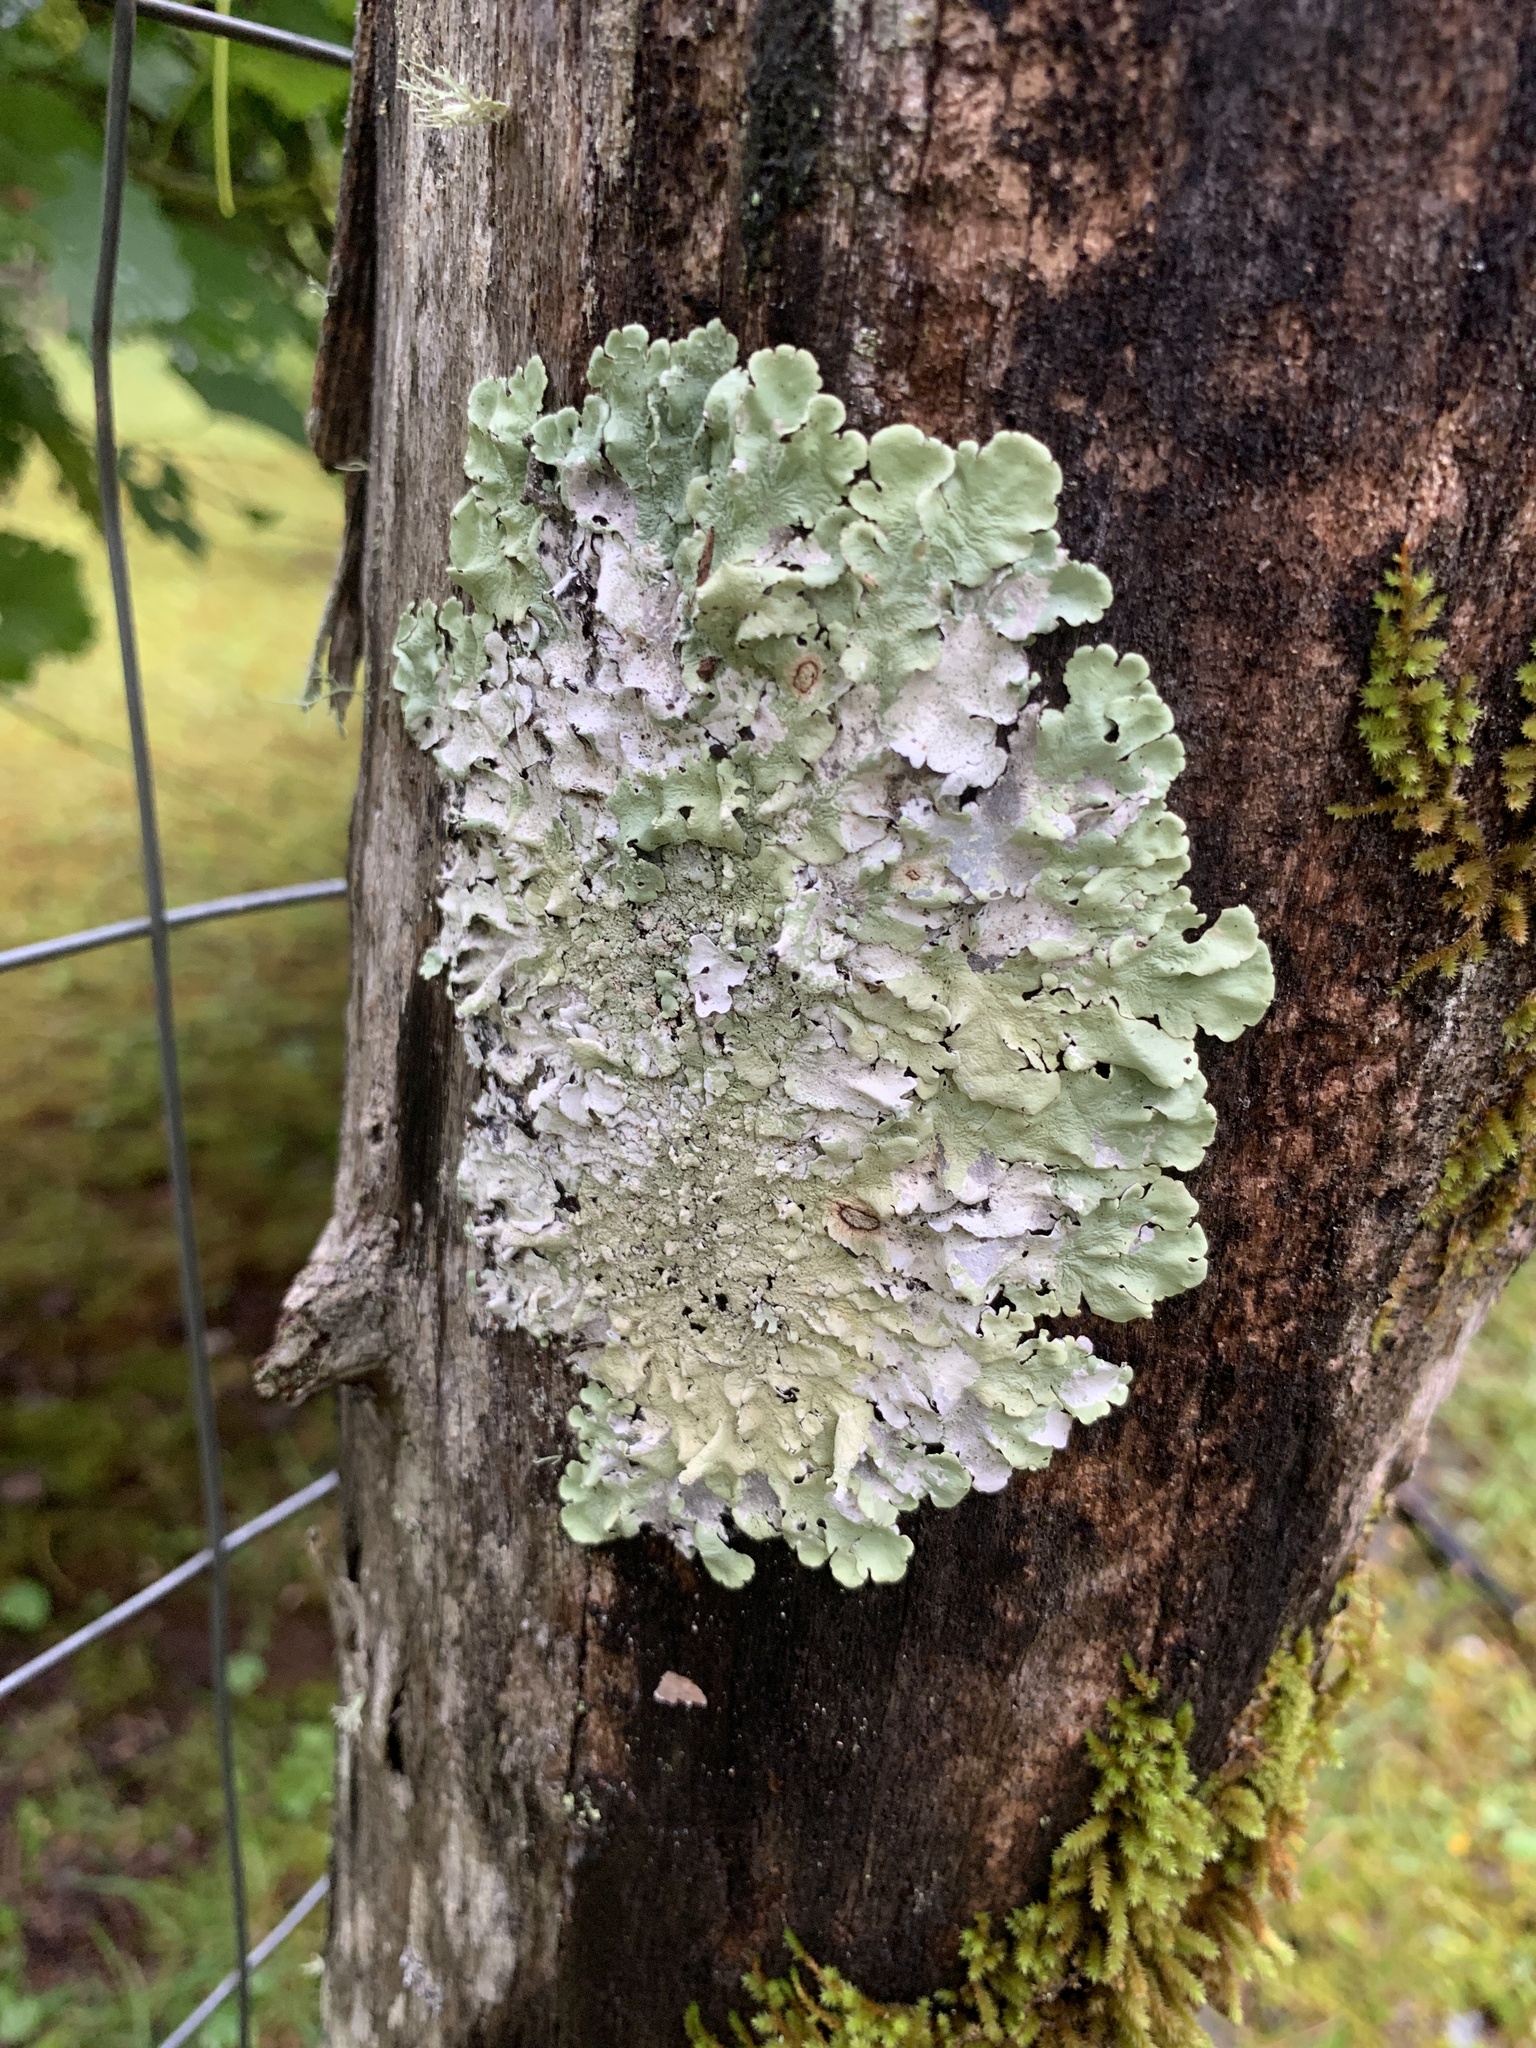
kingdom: Fungi
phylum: Ascomycota
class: Lecanoromycetes
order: Lecanorales
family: Parmeliaceae
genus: Flavoparmelia
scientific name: Flavoparmelia caperata
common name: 40-mile per hour lichen
